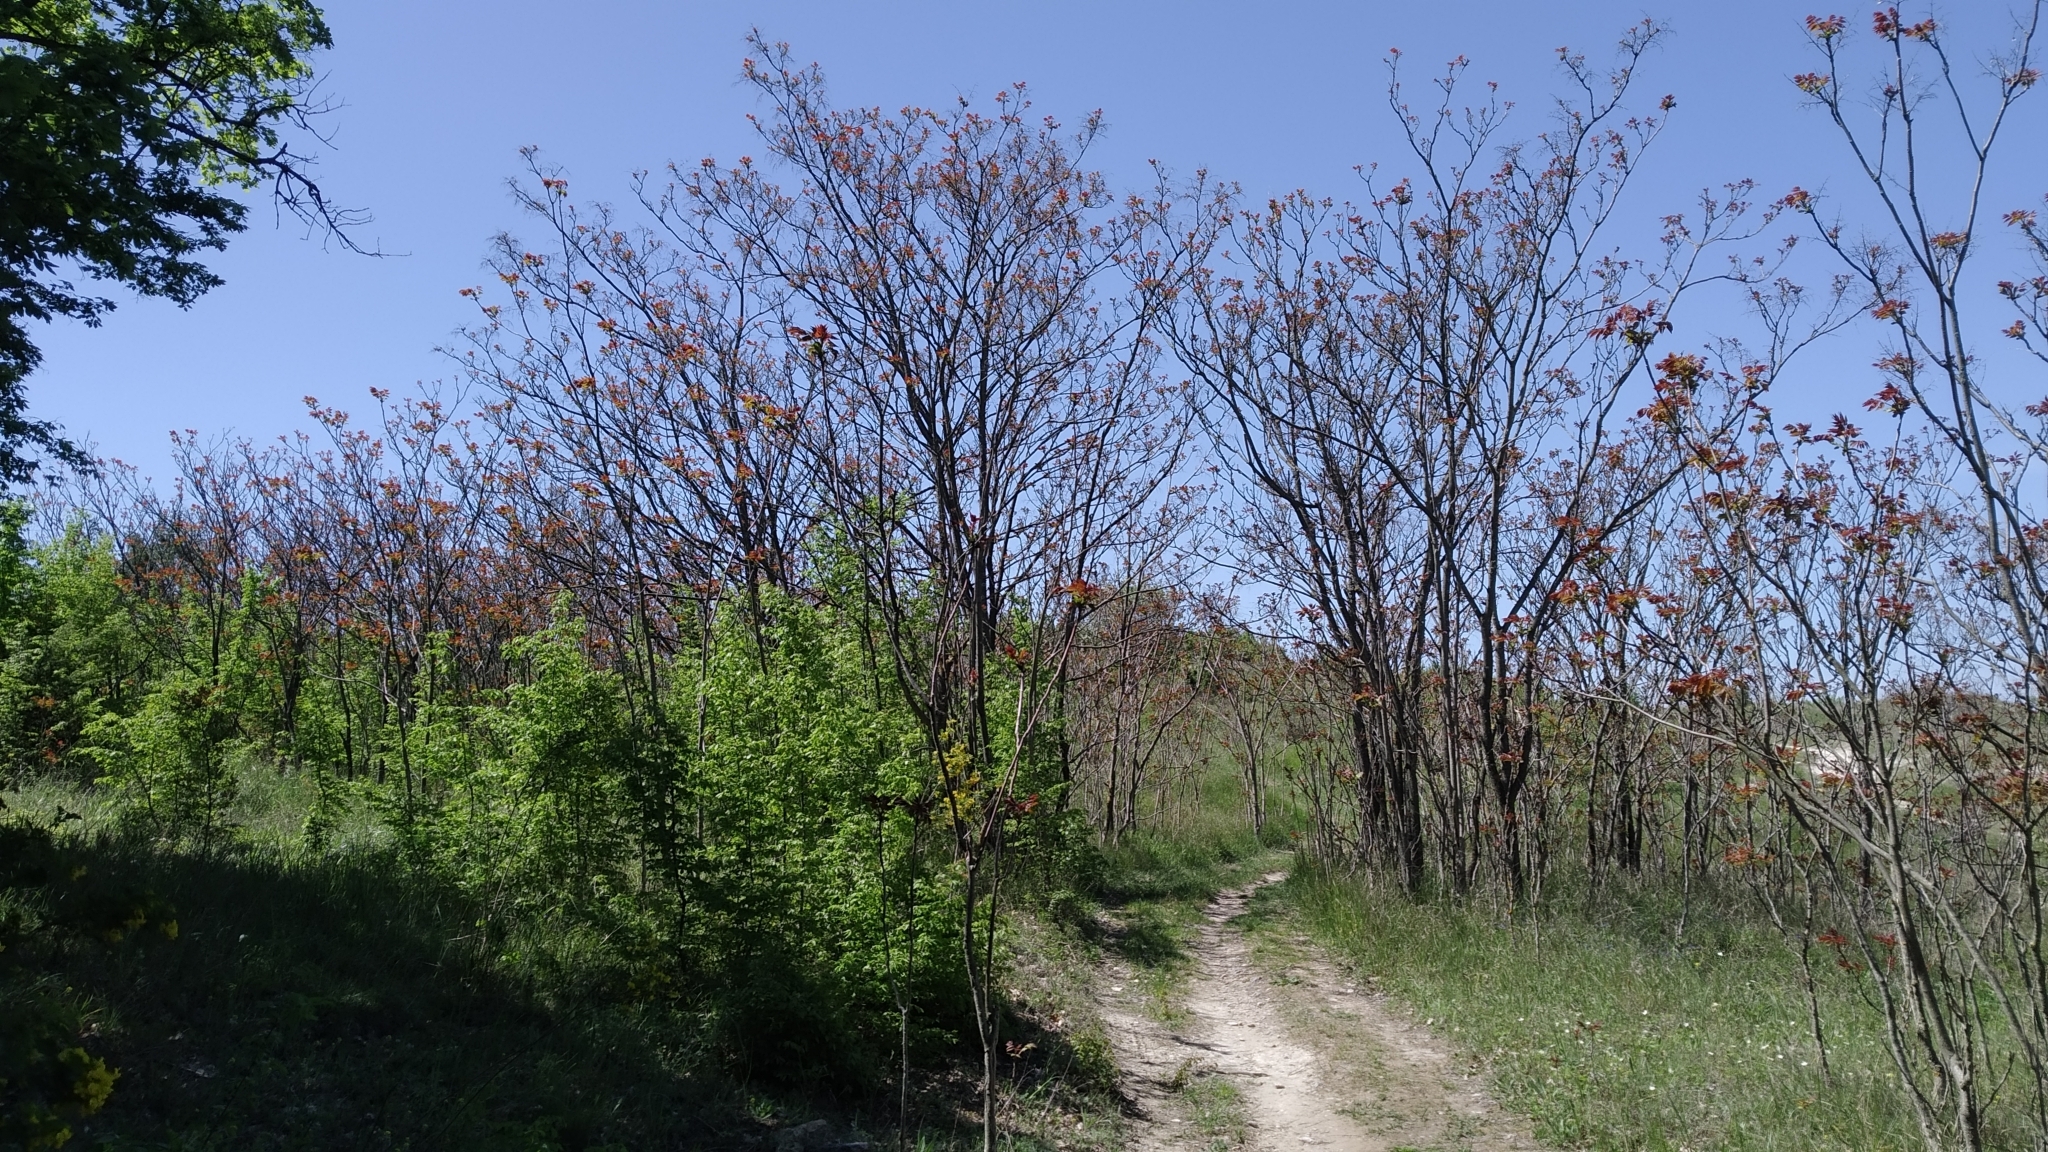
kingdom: Plantae
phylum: Tracheophyta
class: Magnoliopsida
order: Sapindales
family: Simaroubaceae
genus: Ailanthus
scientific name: Ailanthus altissima
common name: Tree-of-heaven
